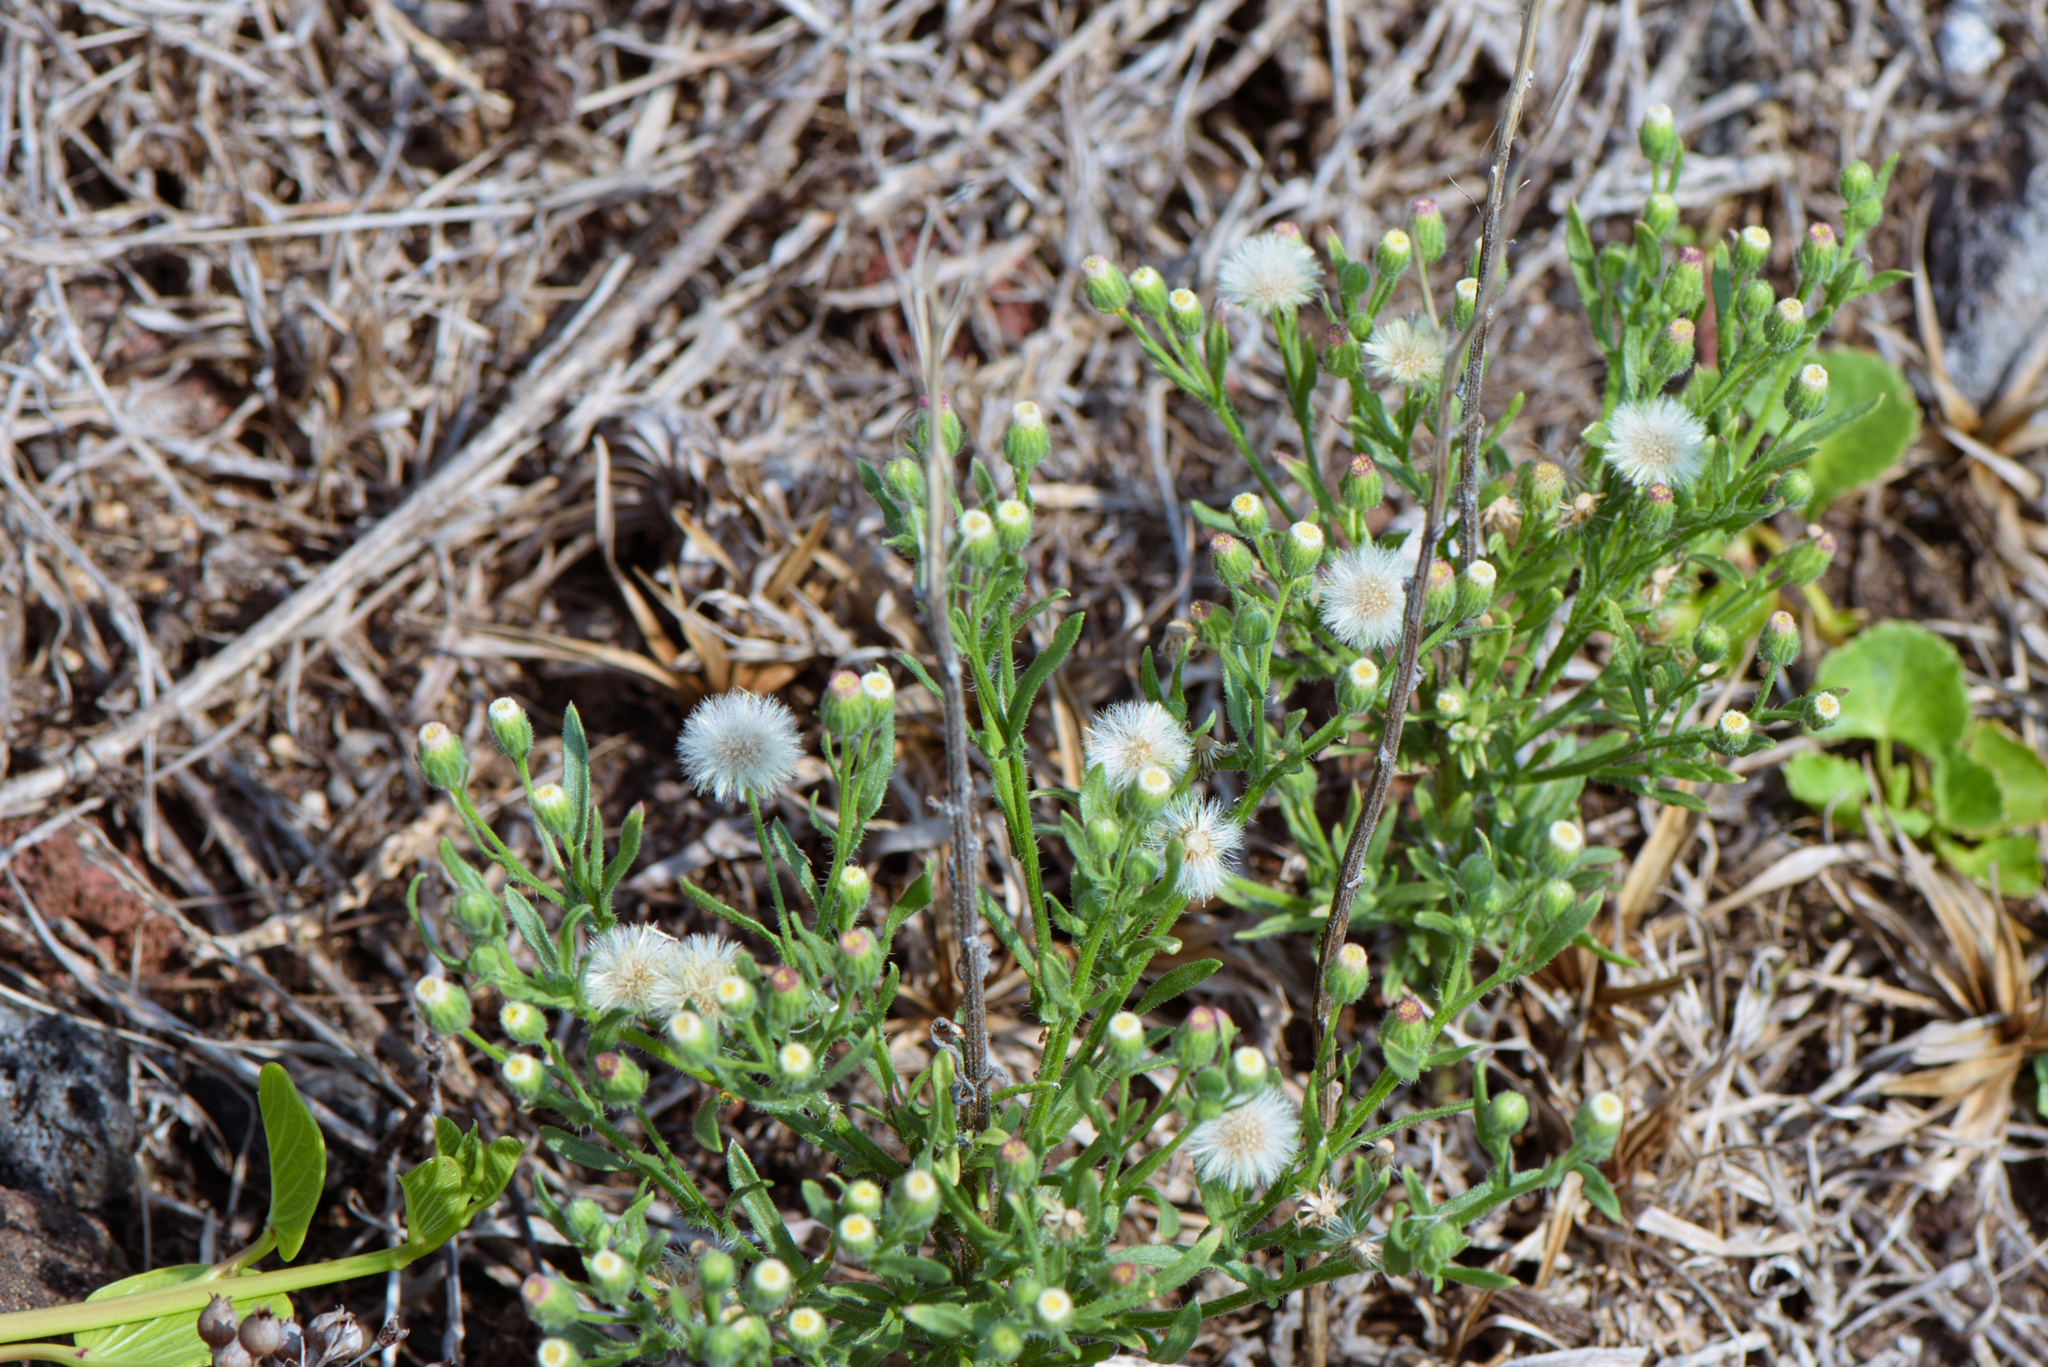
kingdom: Plantae
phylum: Tracheophyta
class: Magnoliopsida
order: Asterales
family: Asteraceae
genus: Erigeron
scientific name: Erigeron bonariensis
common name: Argentine fleabane
